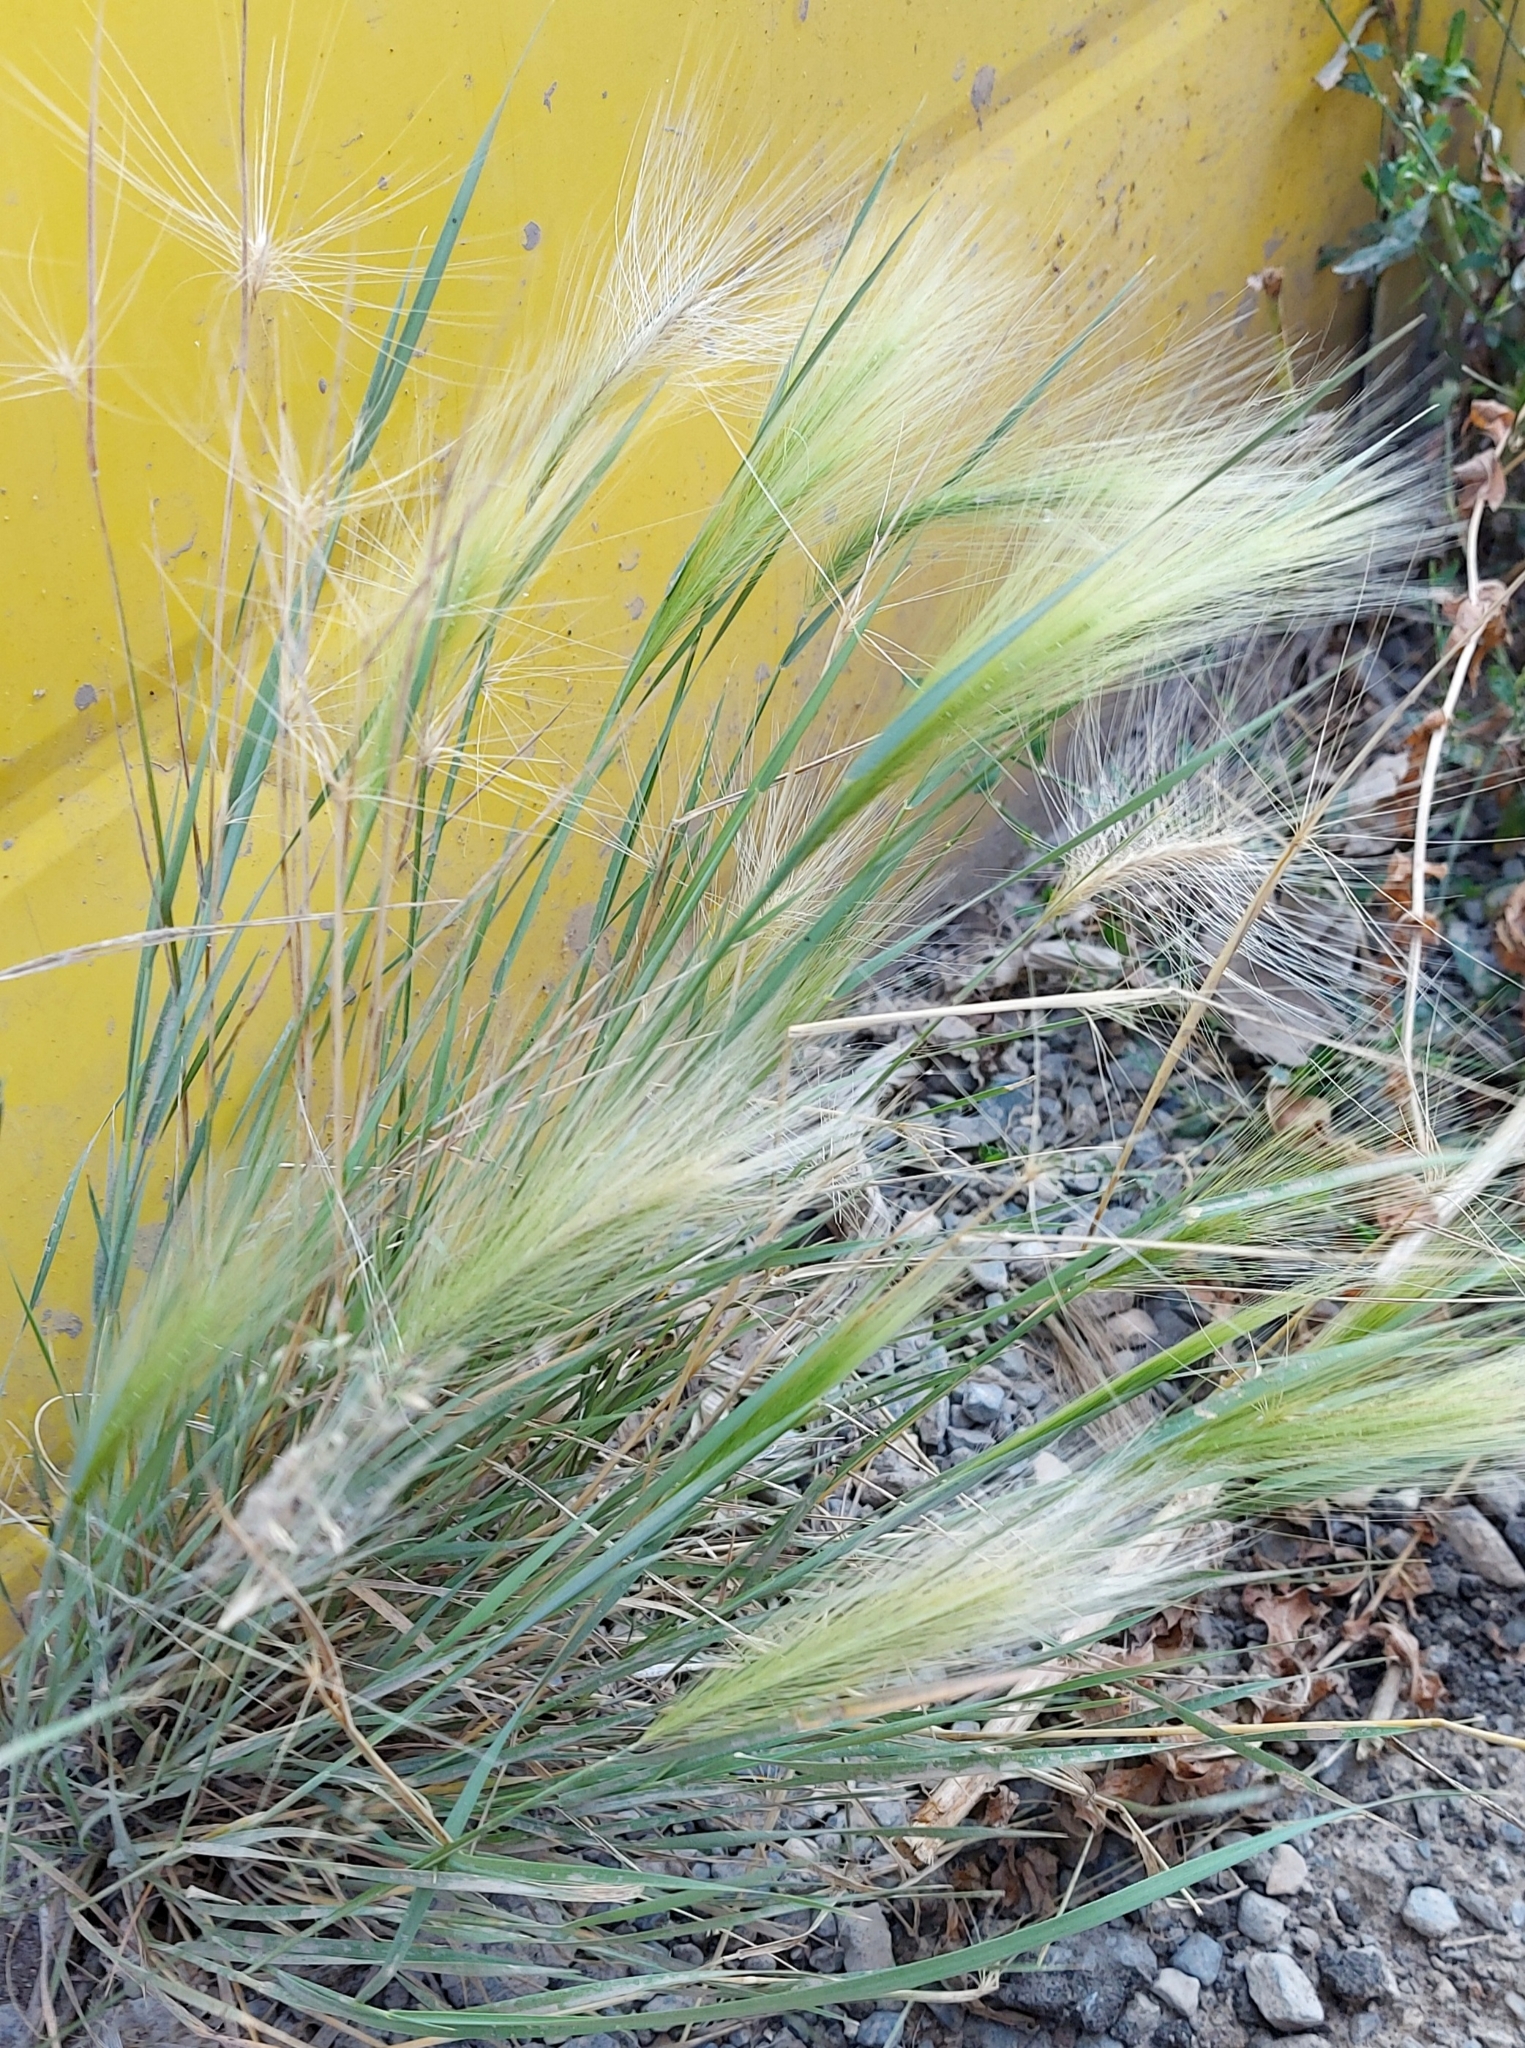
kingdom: Plantae
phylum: Tracheophyta
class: Liliopsida
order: Poales
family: Poaceae
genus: Hordeum
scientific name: Hordeum jubatum
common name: Foxtail barley
